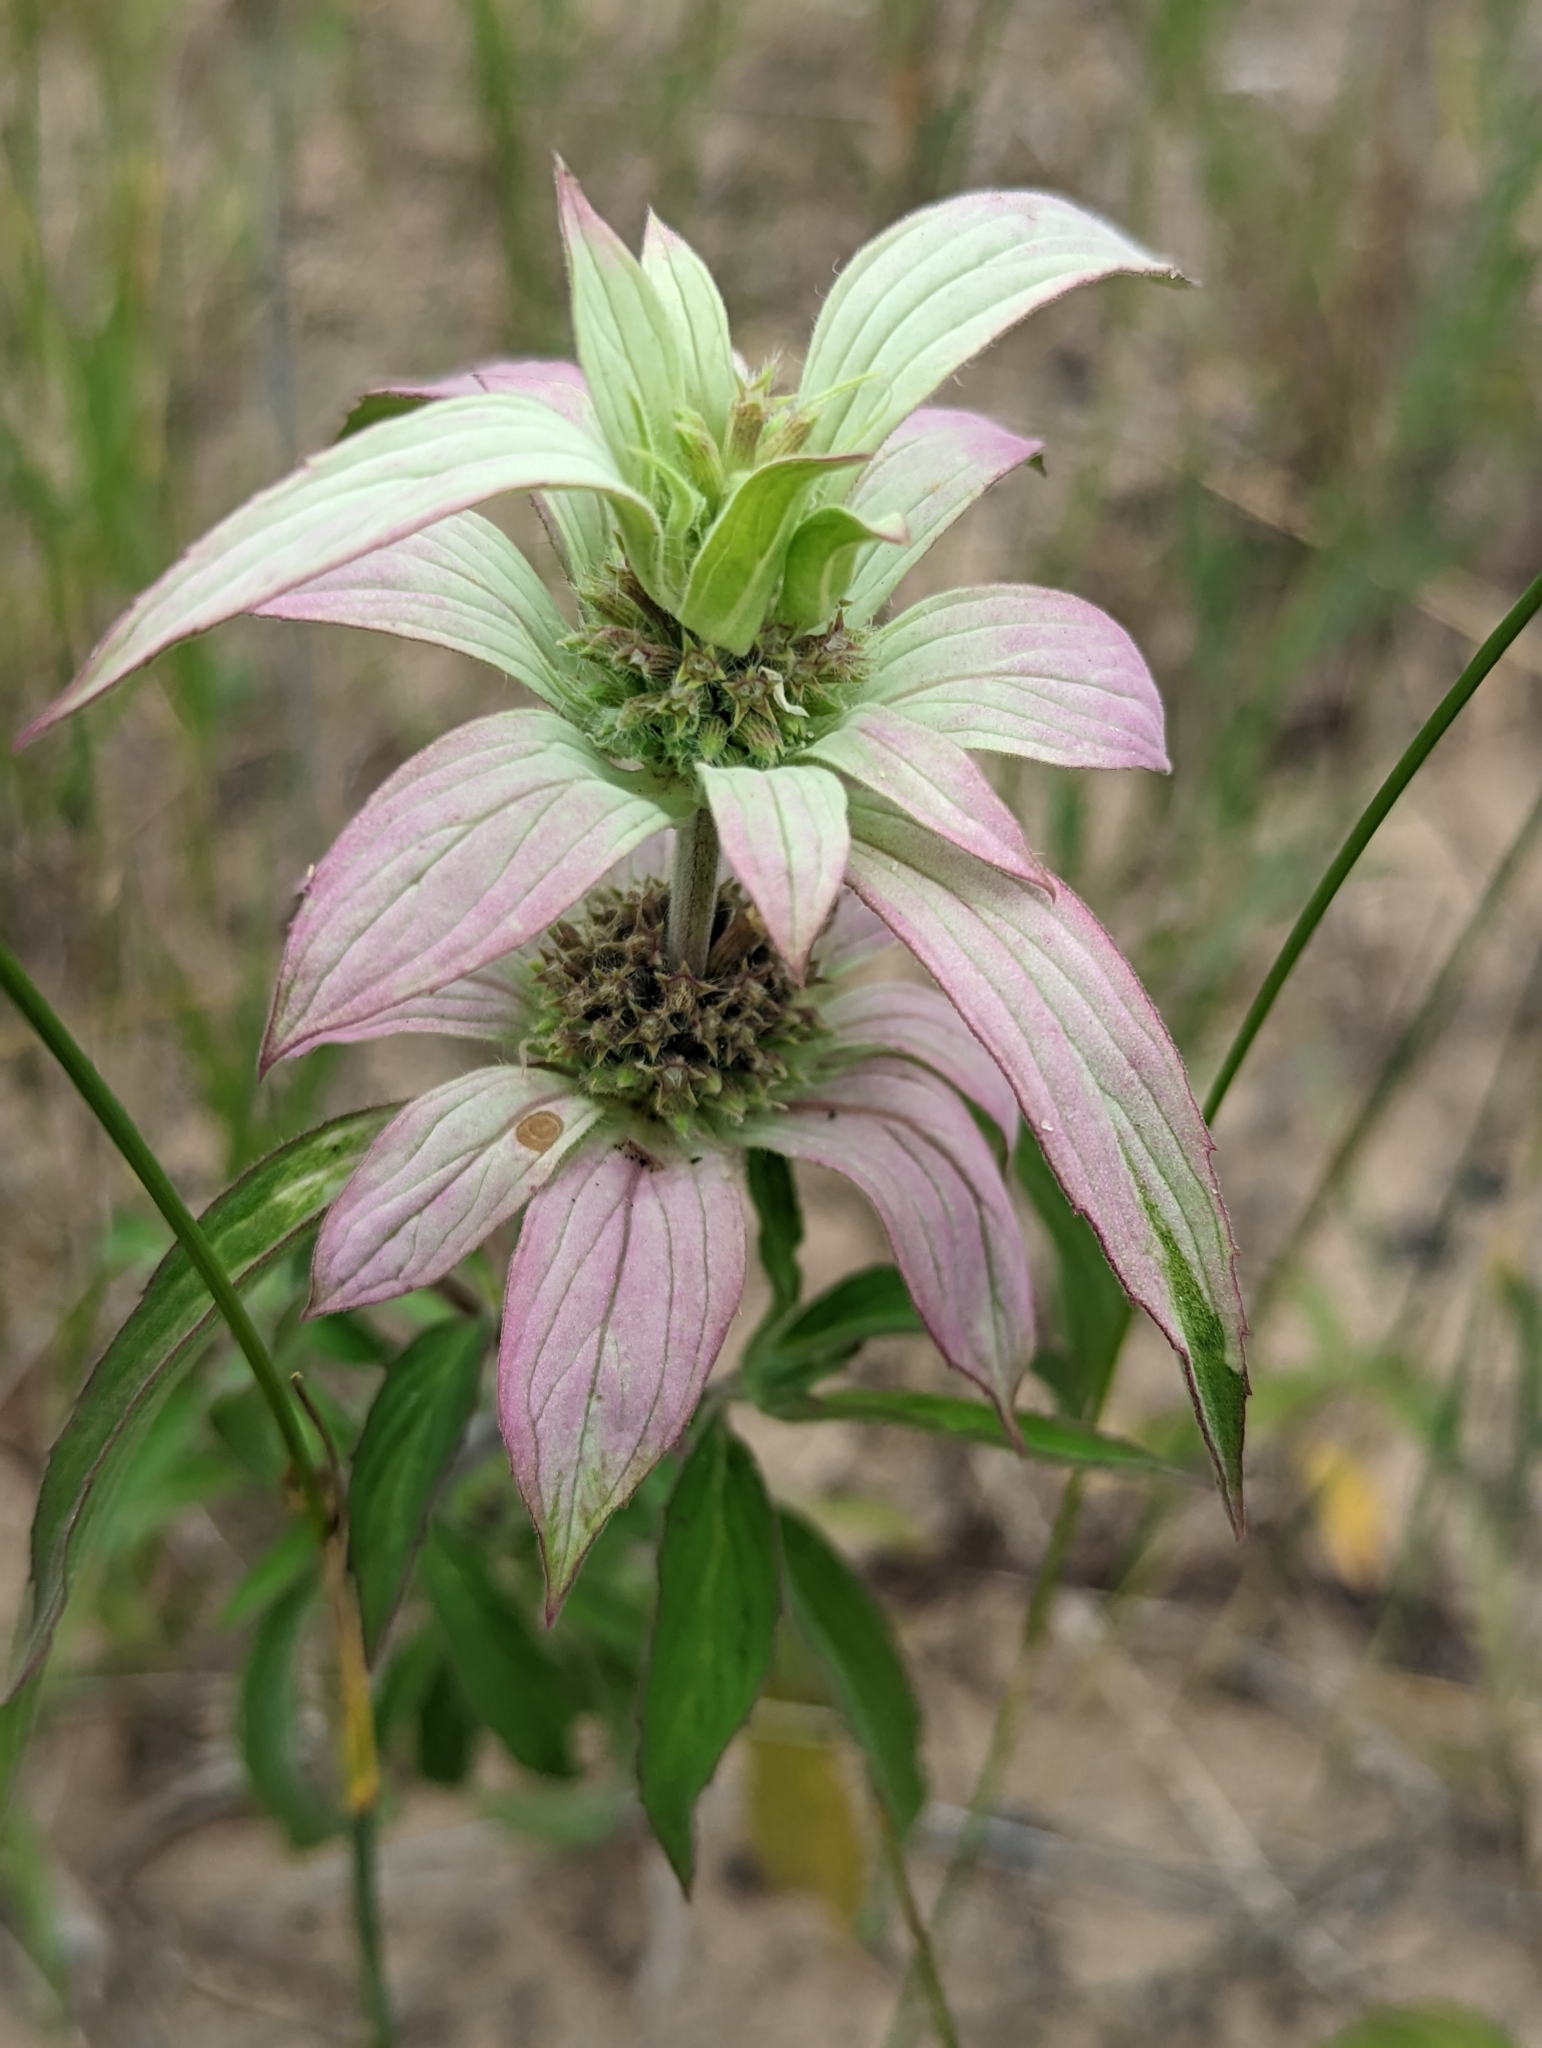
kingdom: Plantae
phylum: Tracheophyta
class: Magnoliopsida
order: Lamiales
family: Lamiaceae
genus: Monarda
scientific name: Monarda punctata
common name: Dotted monarda
